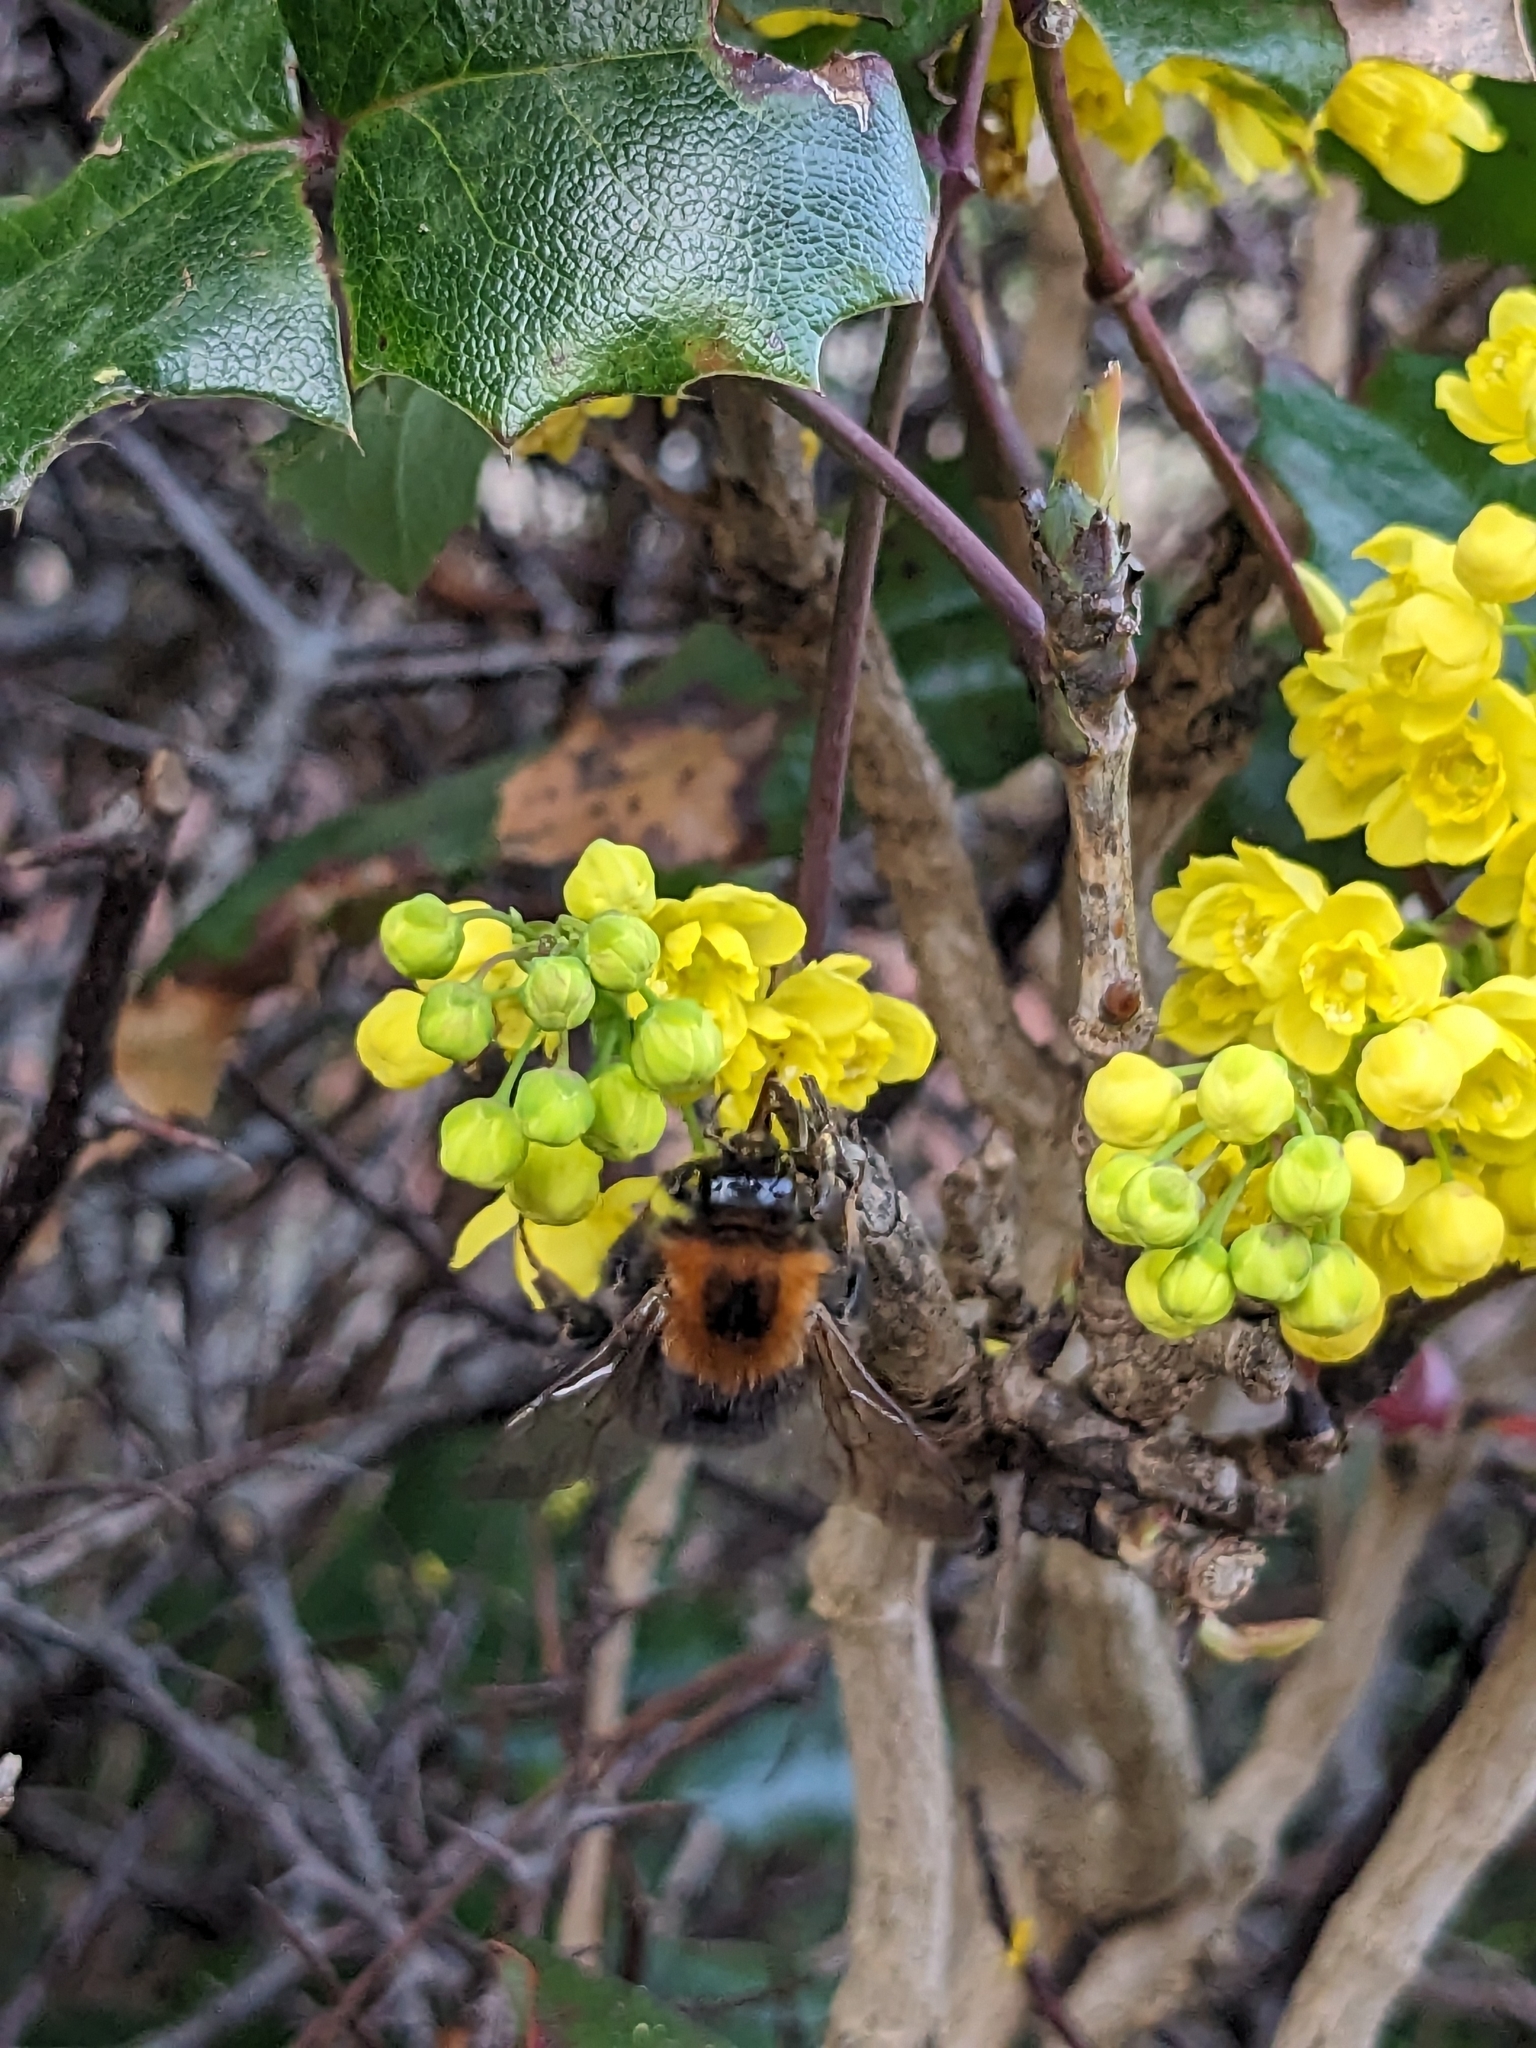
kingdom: Animalia
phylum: Arthropoda
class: Insecta
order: Hymenoptera
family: Apidae
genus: Bombus
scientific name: Bombus hypnorum
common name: New garden bumblebee
